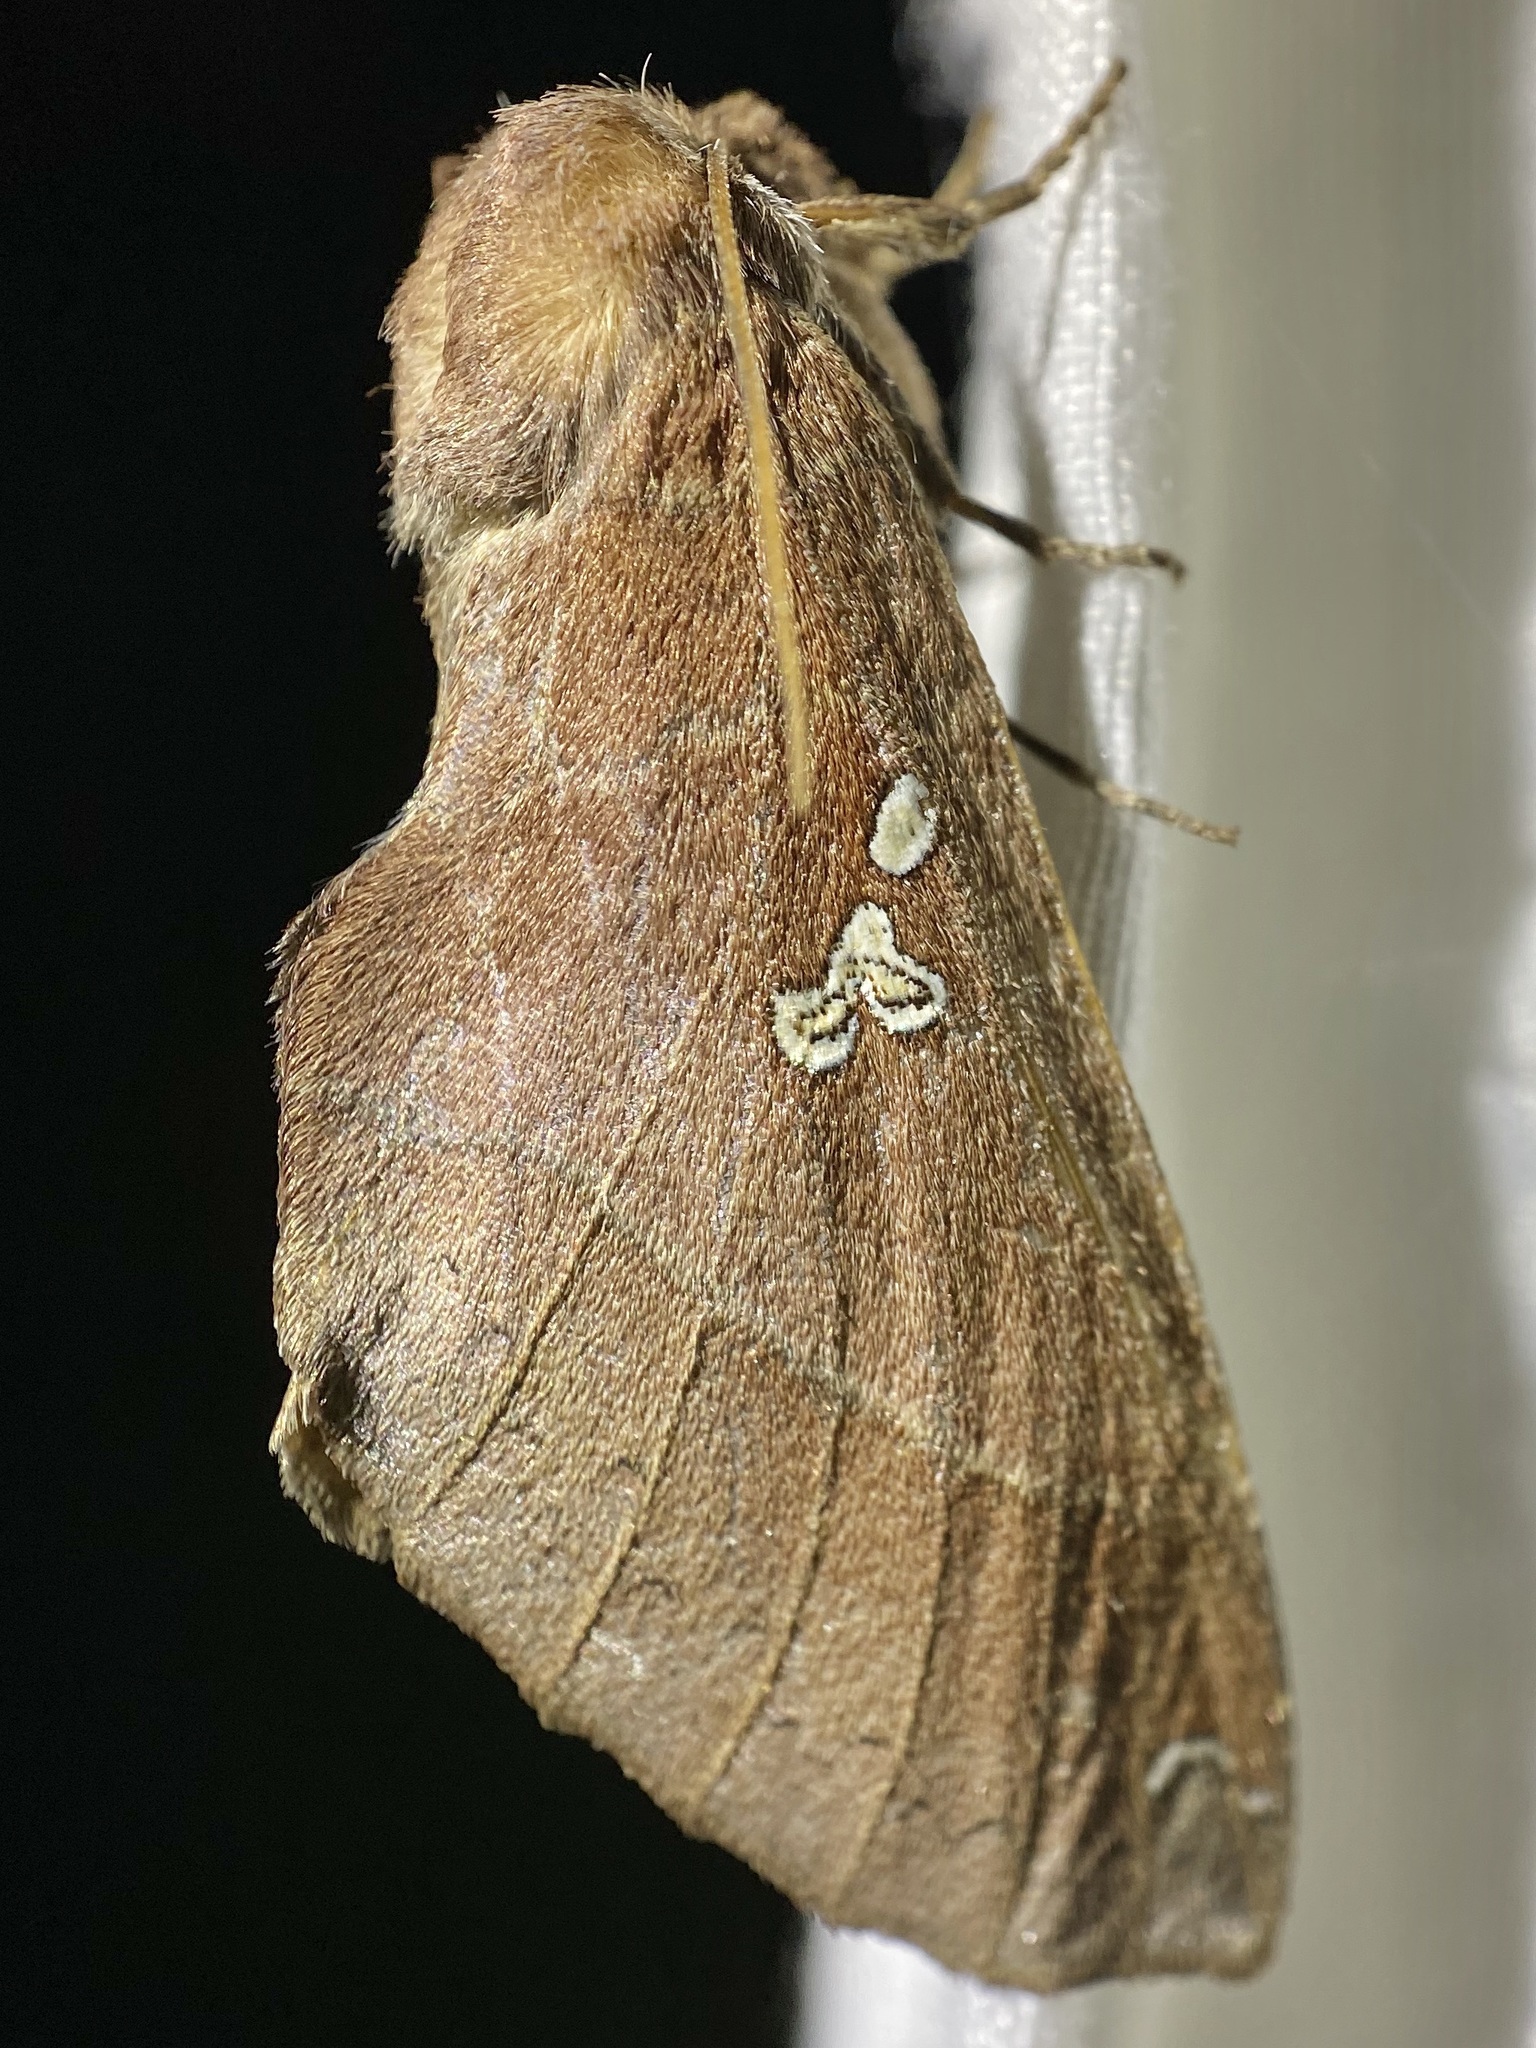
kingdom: Animalia
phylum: Arthropoda
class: Insecta
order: Lepidoptera
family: Notodontidae
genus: Pseudhapigia
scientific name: Pseudhapigia brunnea
